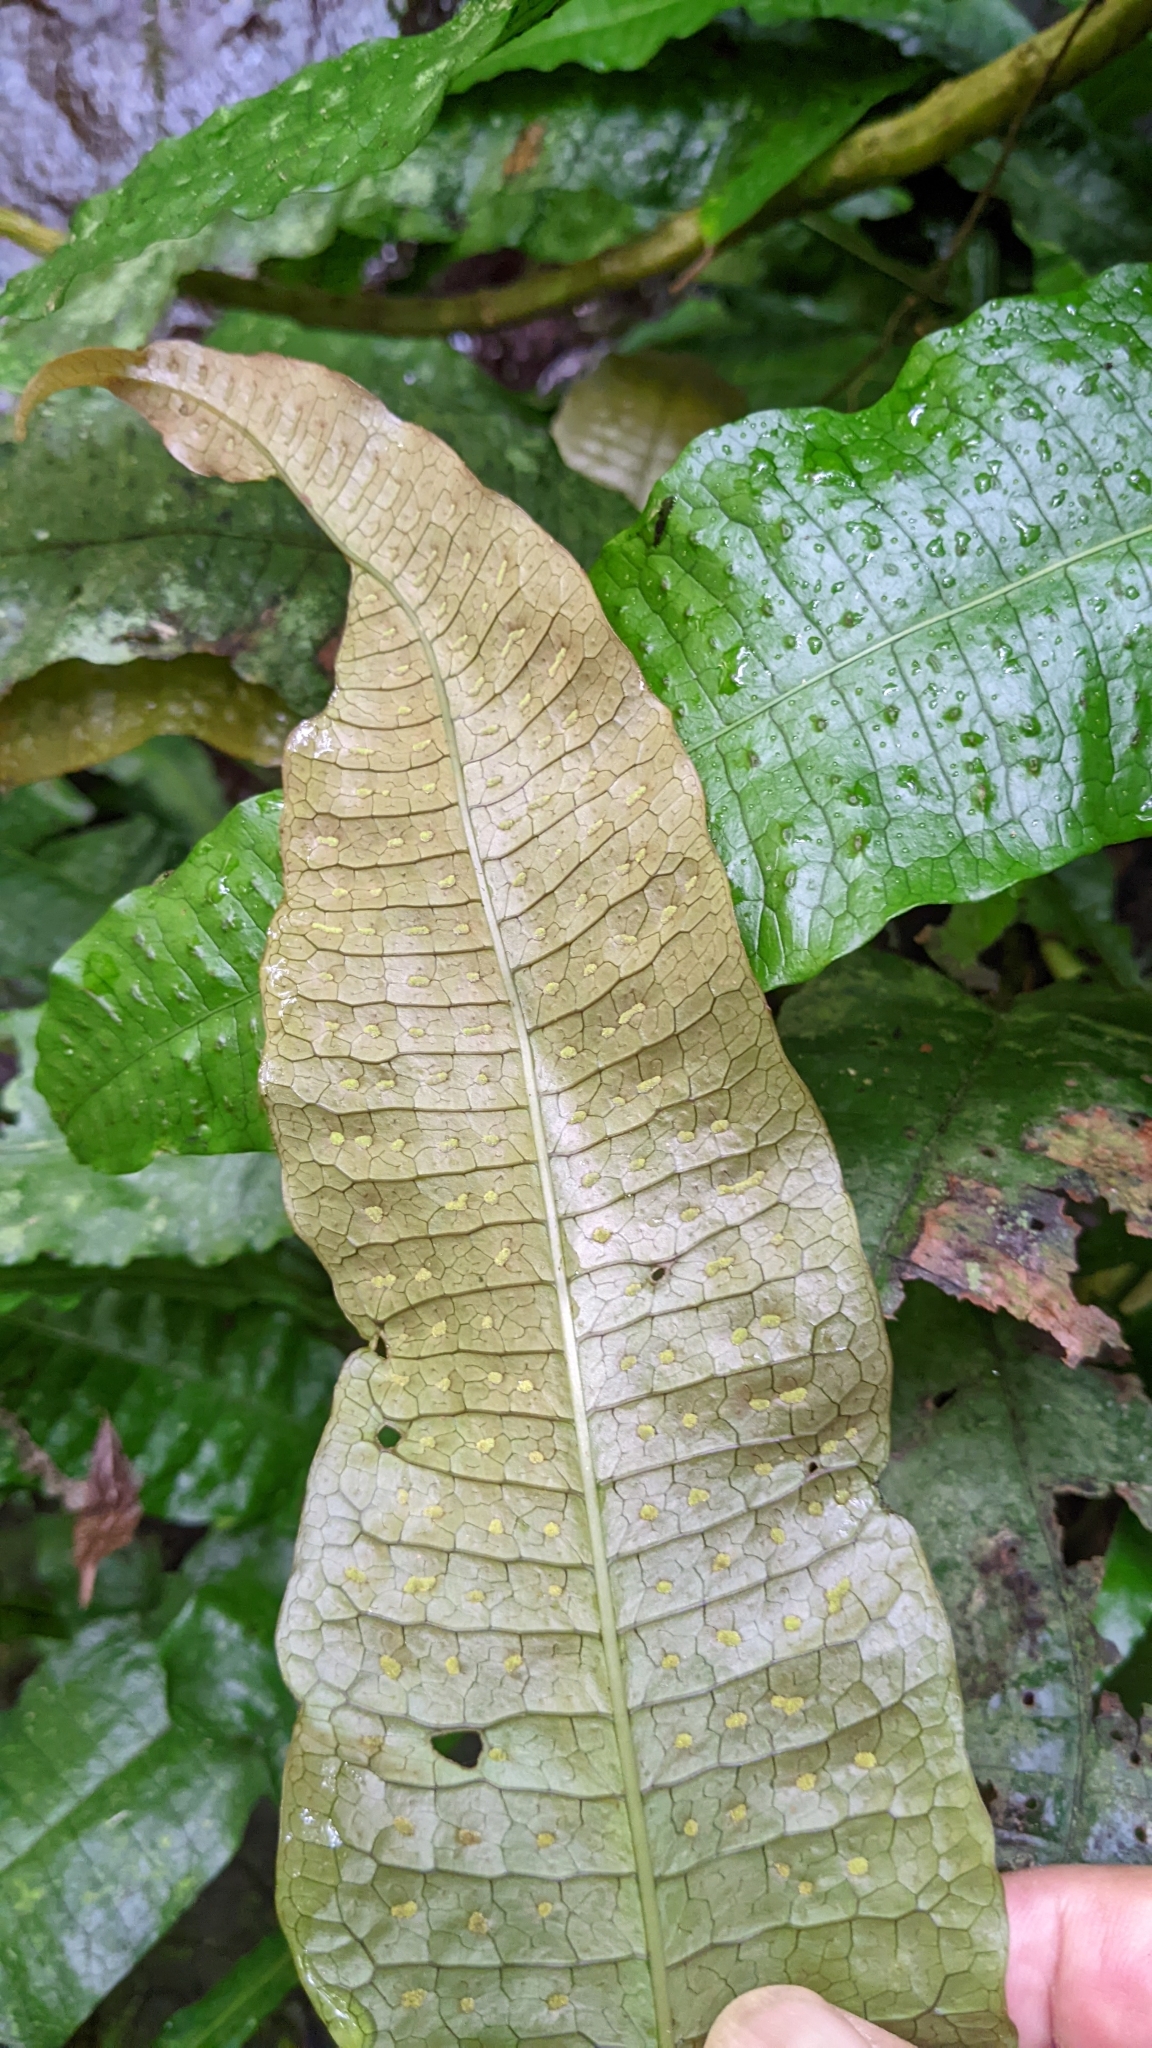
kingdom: Plantae
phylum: Tracheophyta
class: Polypodiopsida
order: Polypodiales
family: Polypodiaceae
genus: Leptochilus
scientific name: Leptochilus hemionitideus
